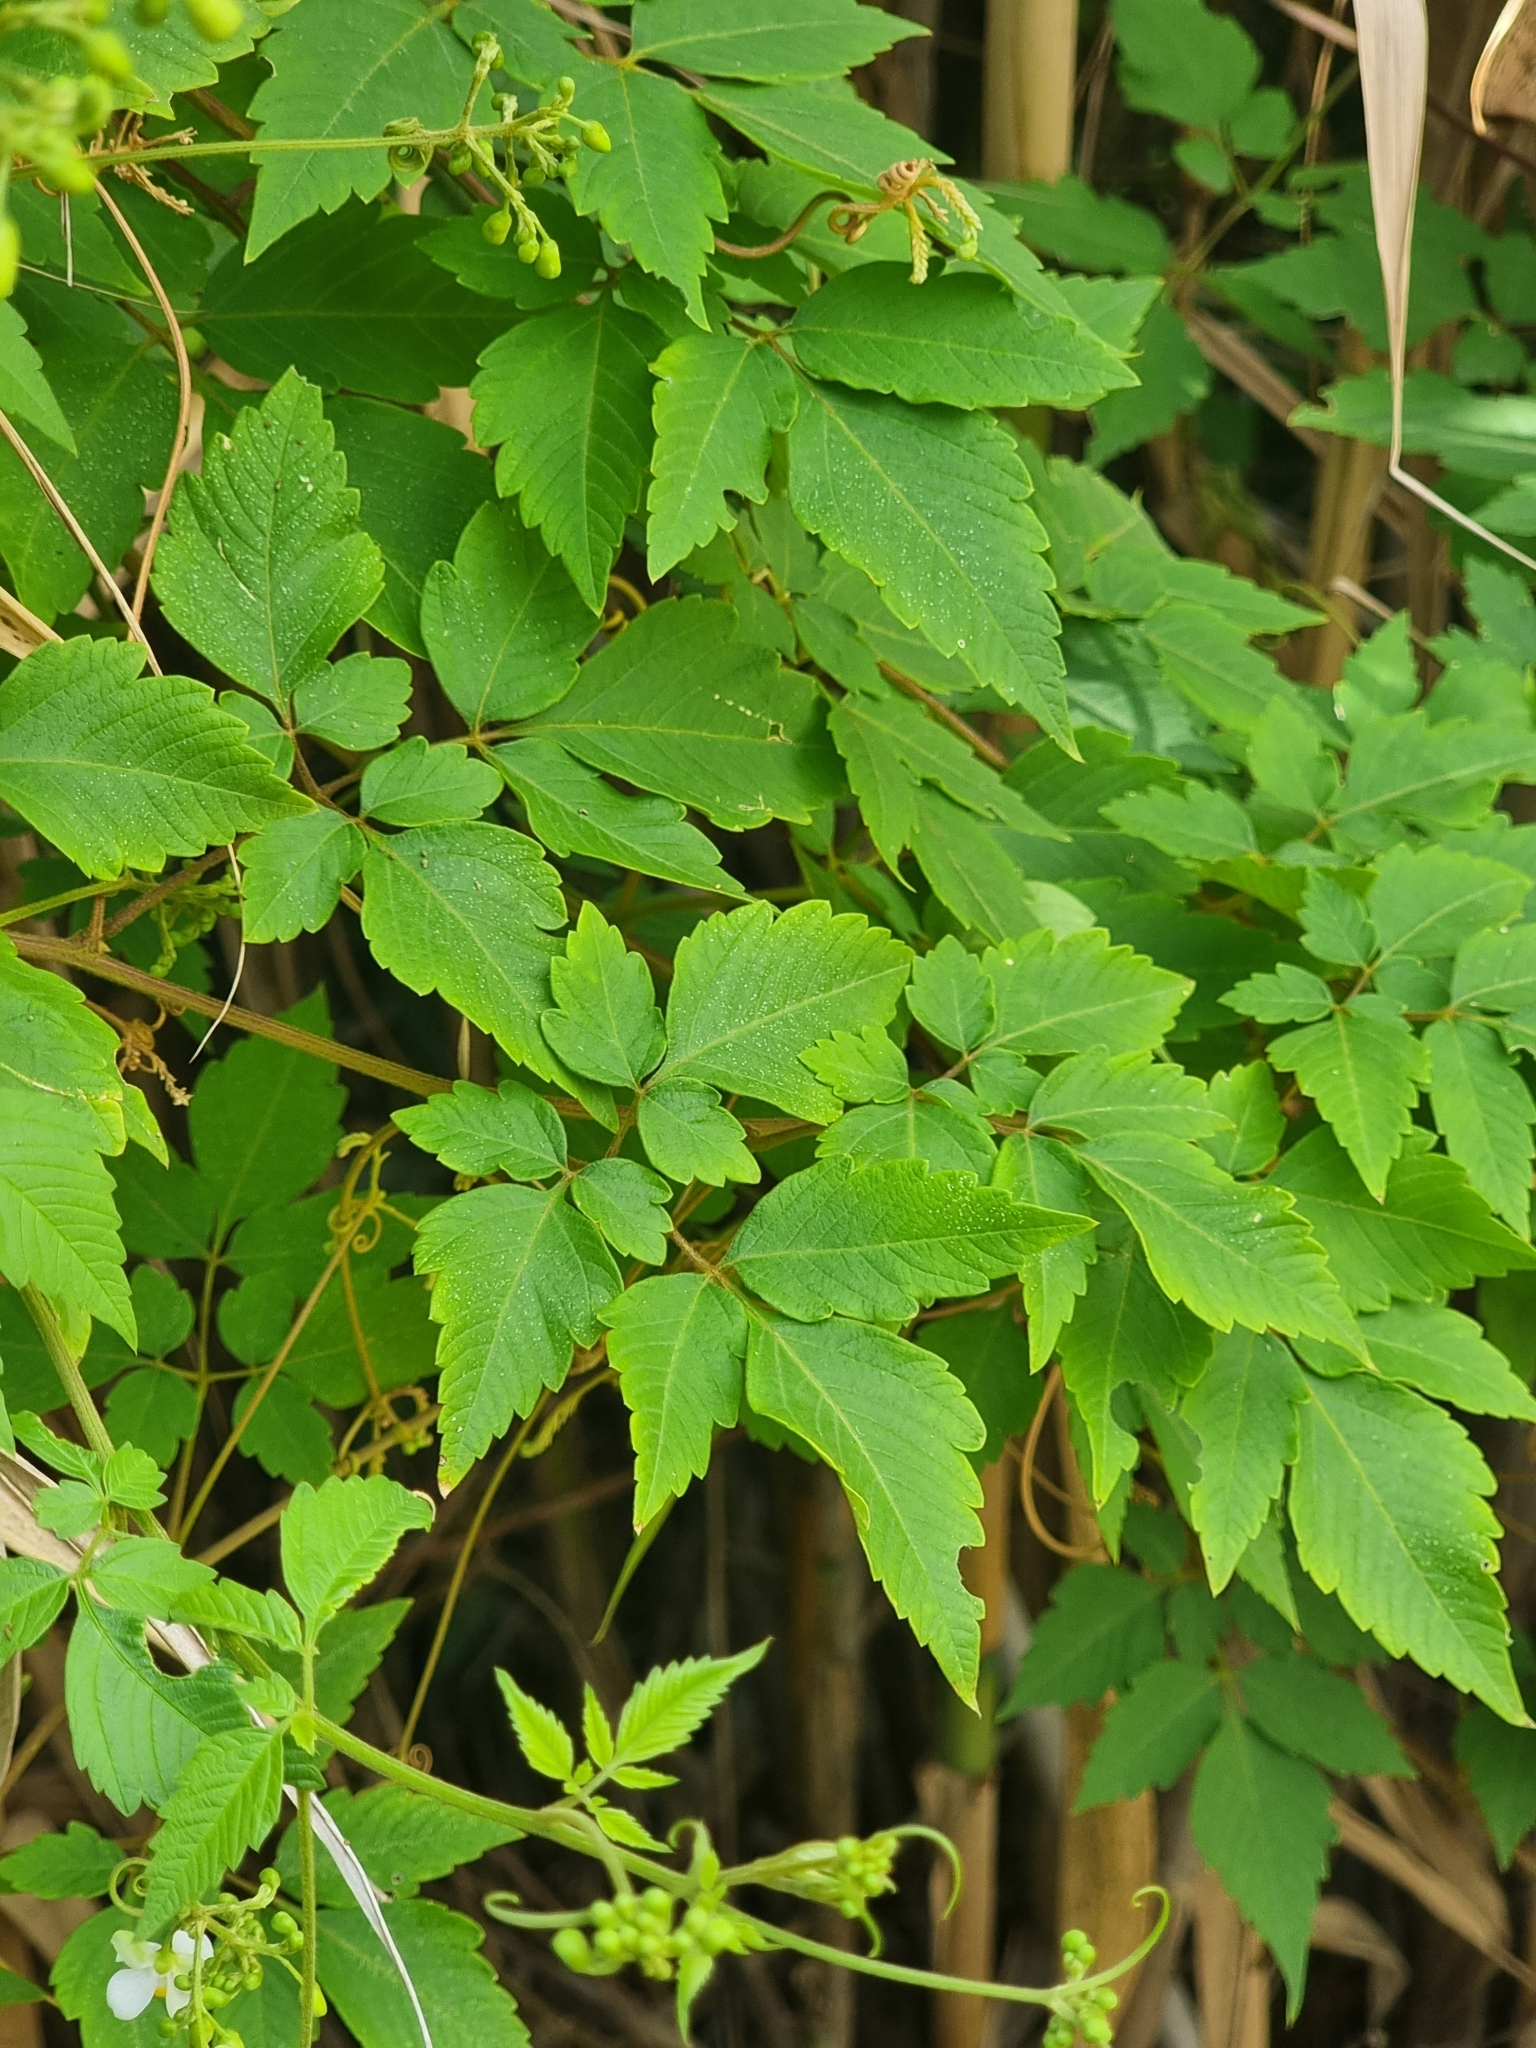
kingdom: Plantae
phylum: Tracheophyta
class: Magnoliopsida
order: Sapindales
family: Sapindaceae
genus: Cardiospermum
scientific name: Cardiospermum grandiflorum
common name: Balloon vine
